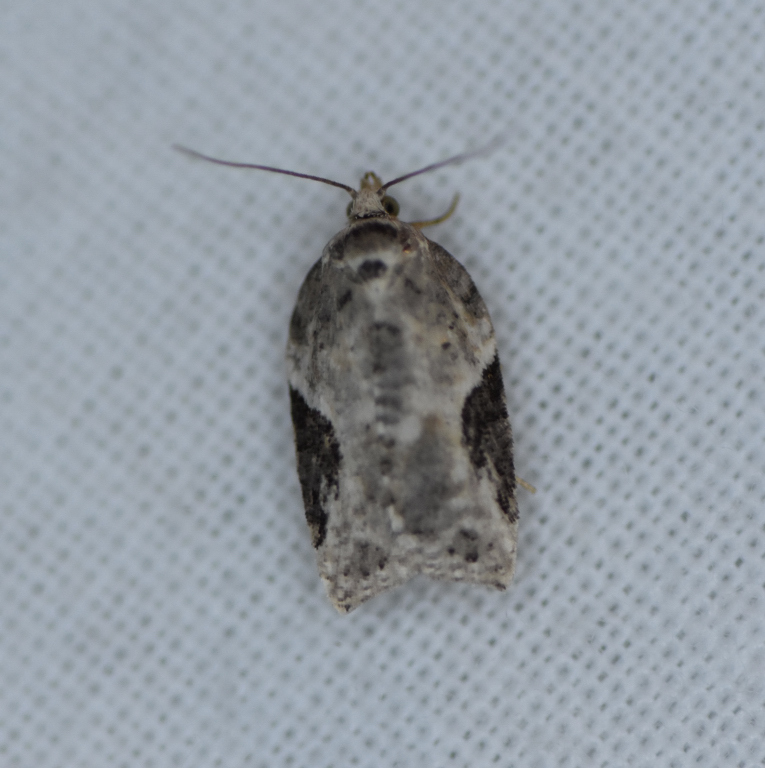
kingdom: Animalia
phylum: Arthropoda
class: Insecta
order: Lepidoptera
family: Tortricidae
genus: Acleris
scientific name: Acleris forbesana
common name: Forbes' acleris moth
